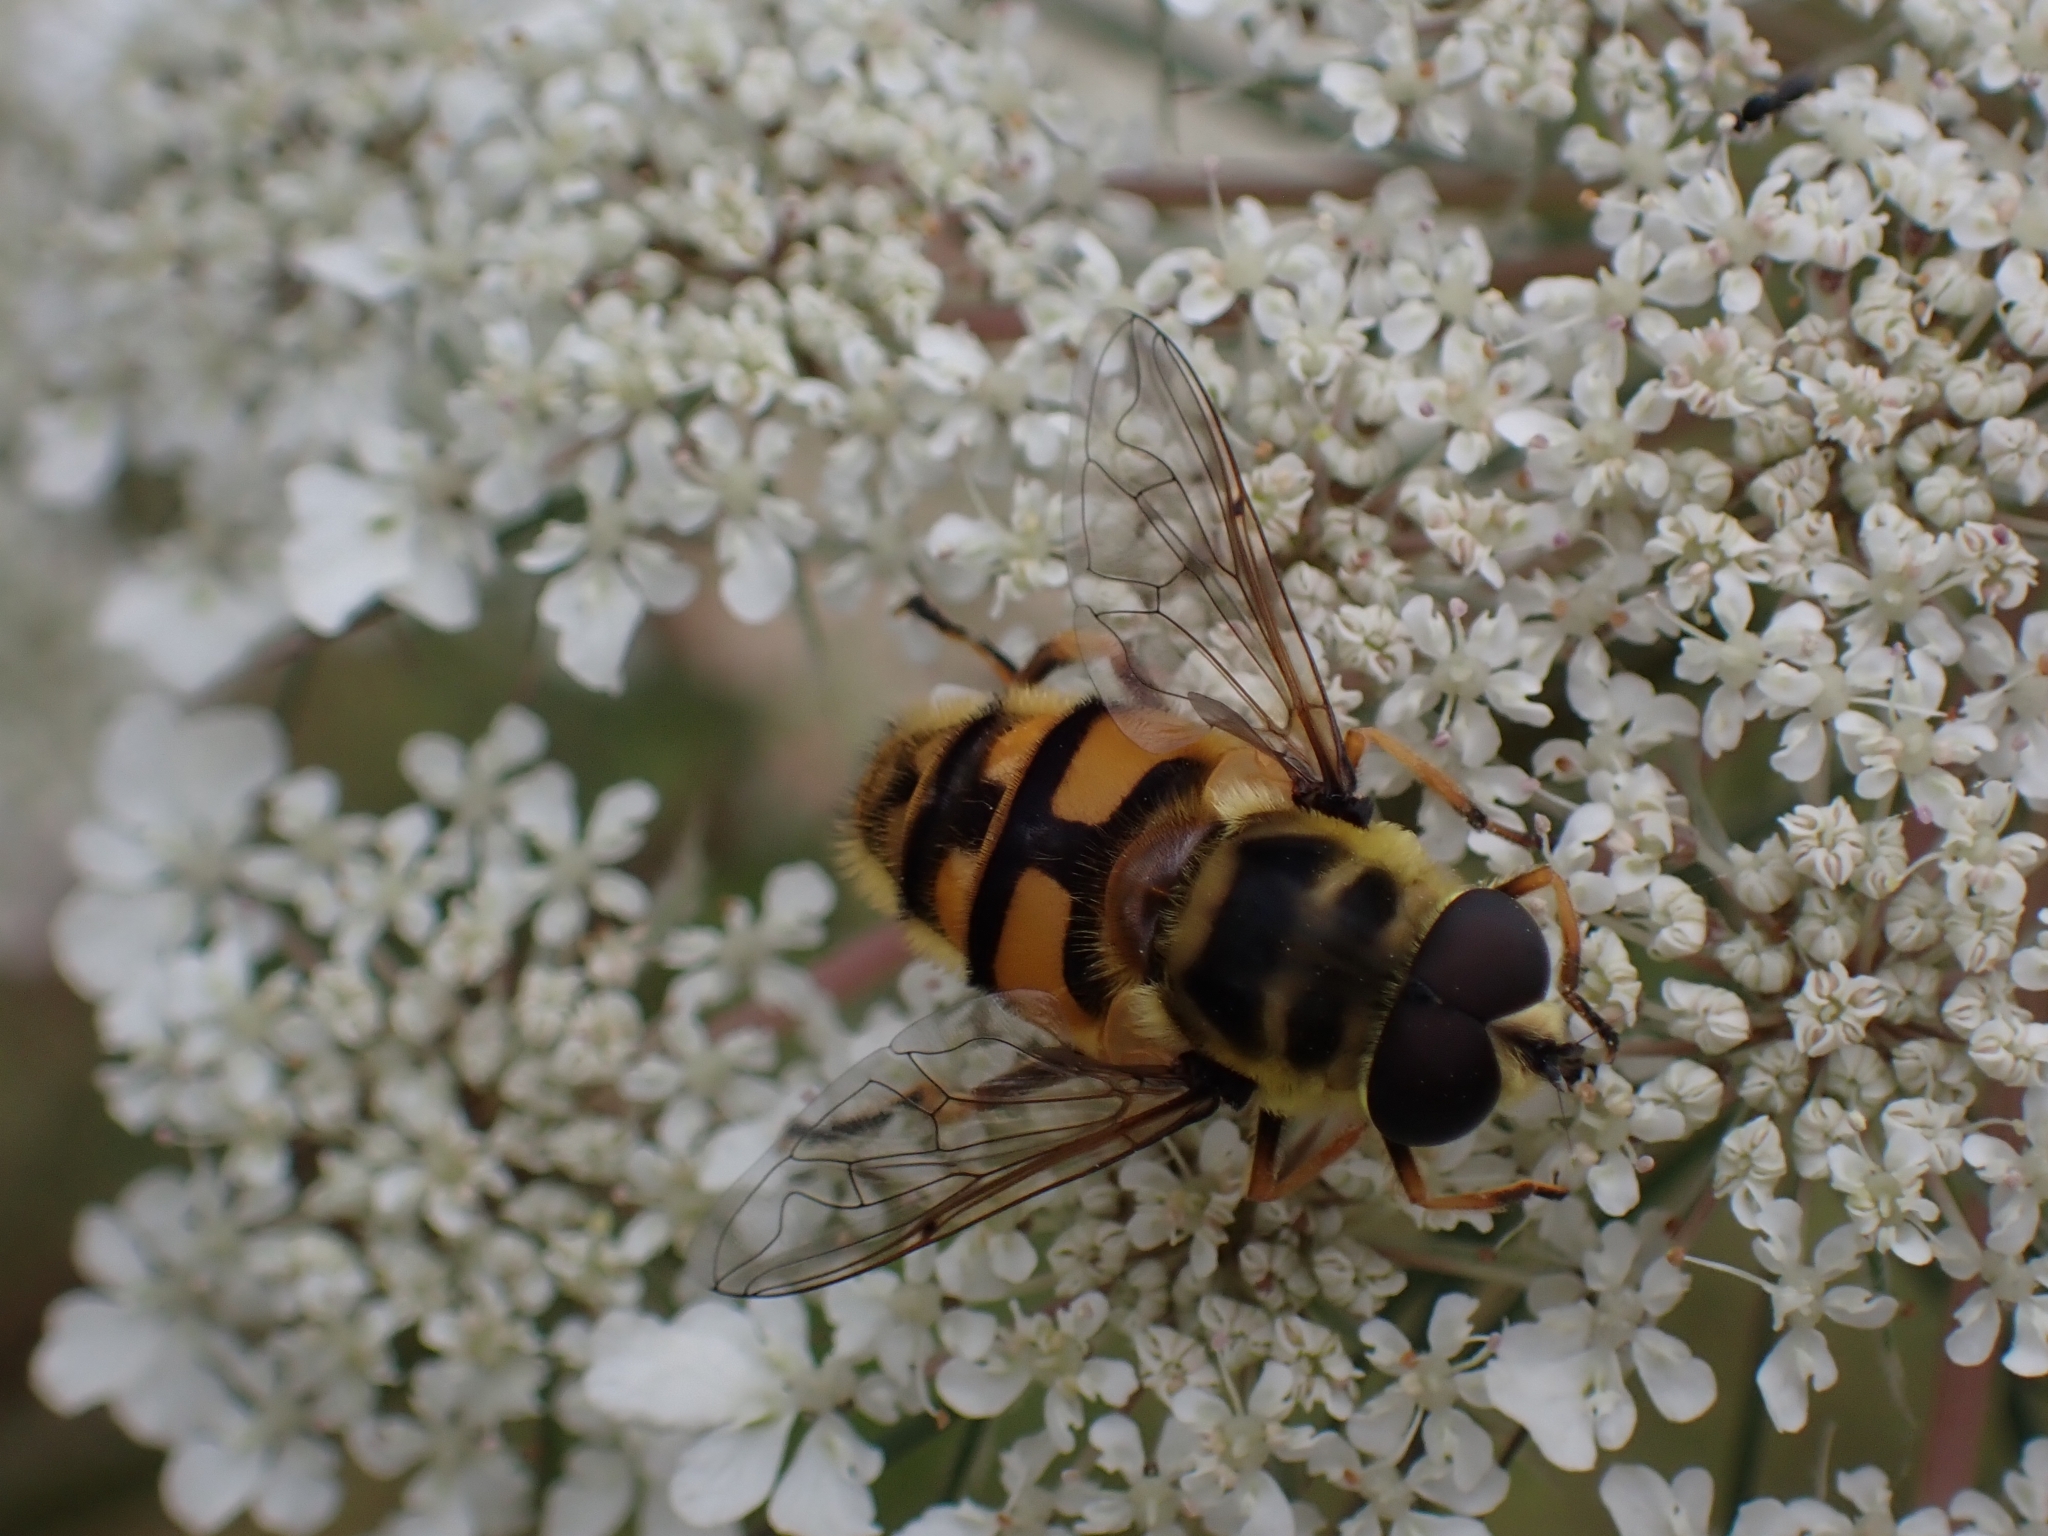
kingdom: Animalia
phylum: Arthropoda
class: Insecta
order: Diptera
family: Syrphidae
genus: Myathropa
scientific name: Myathropa florea
